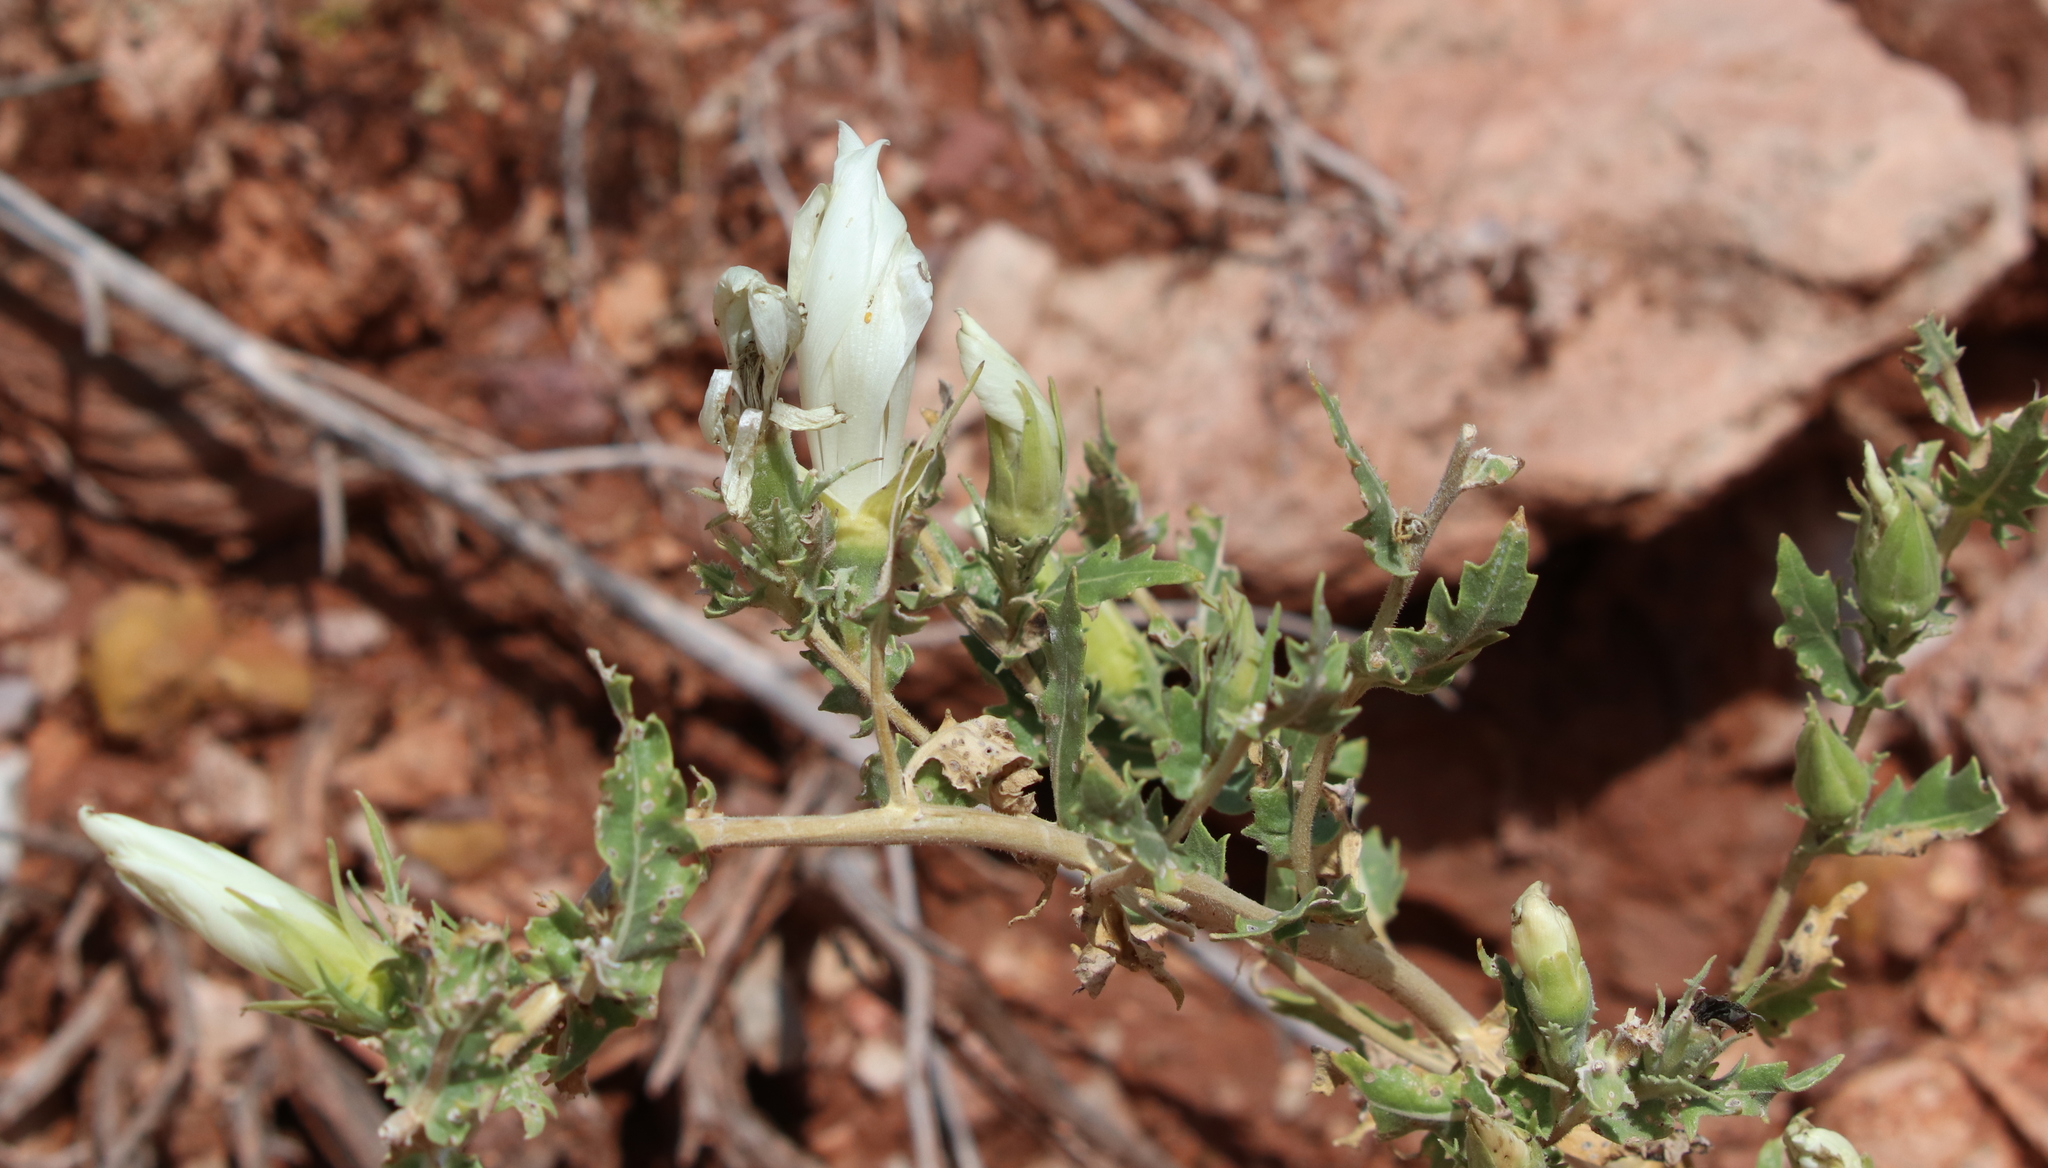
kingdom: Plantae
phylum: Tracheophyta
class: Magnoliopsida
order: Cornales
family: Loasaceae
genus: Mentzelia
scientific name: Mentzelia decapetala
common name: Gumbo-lily
